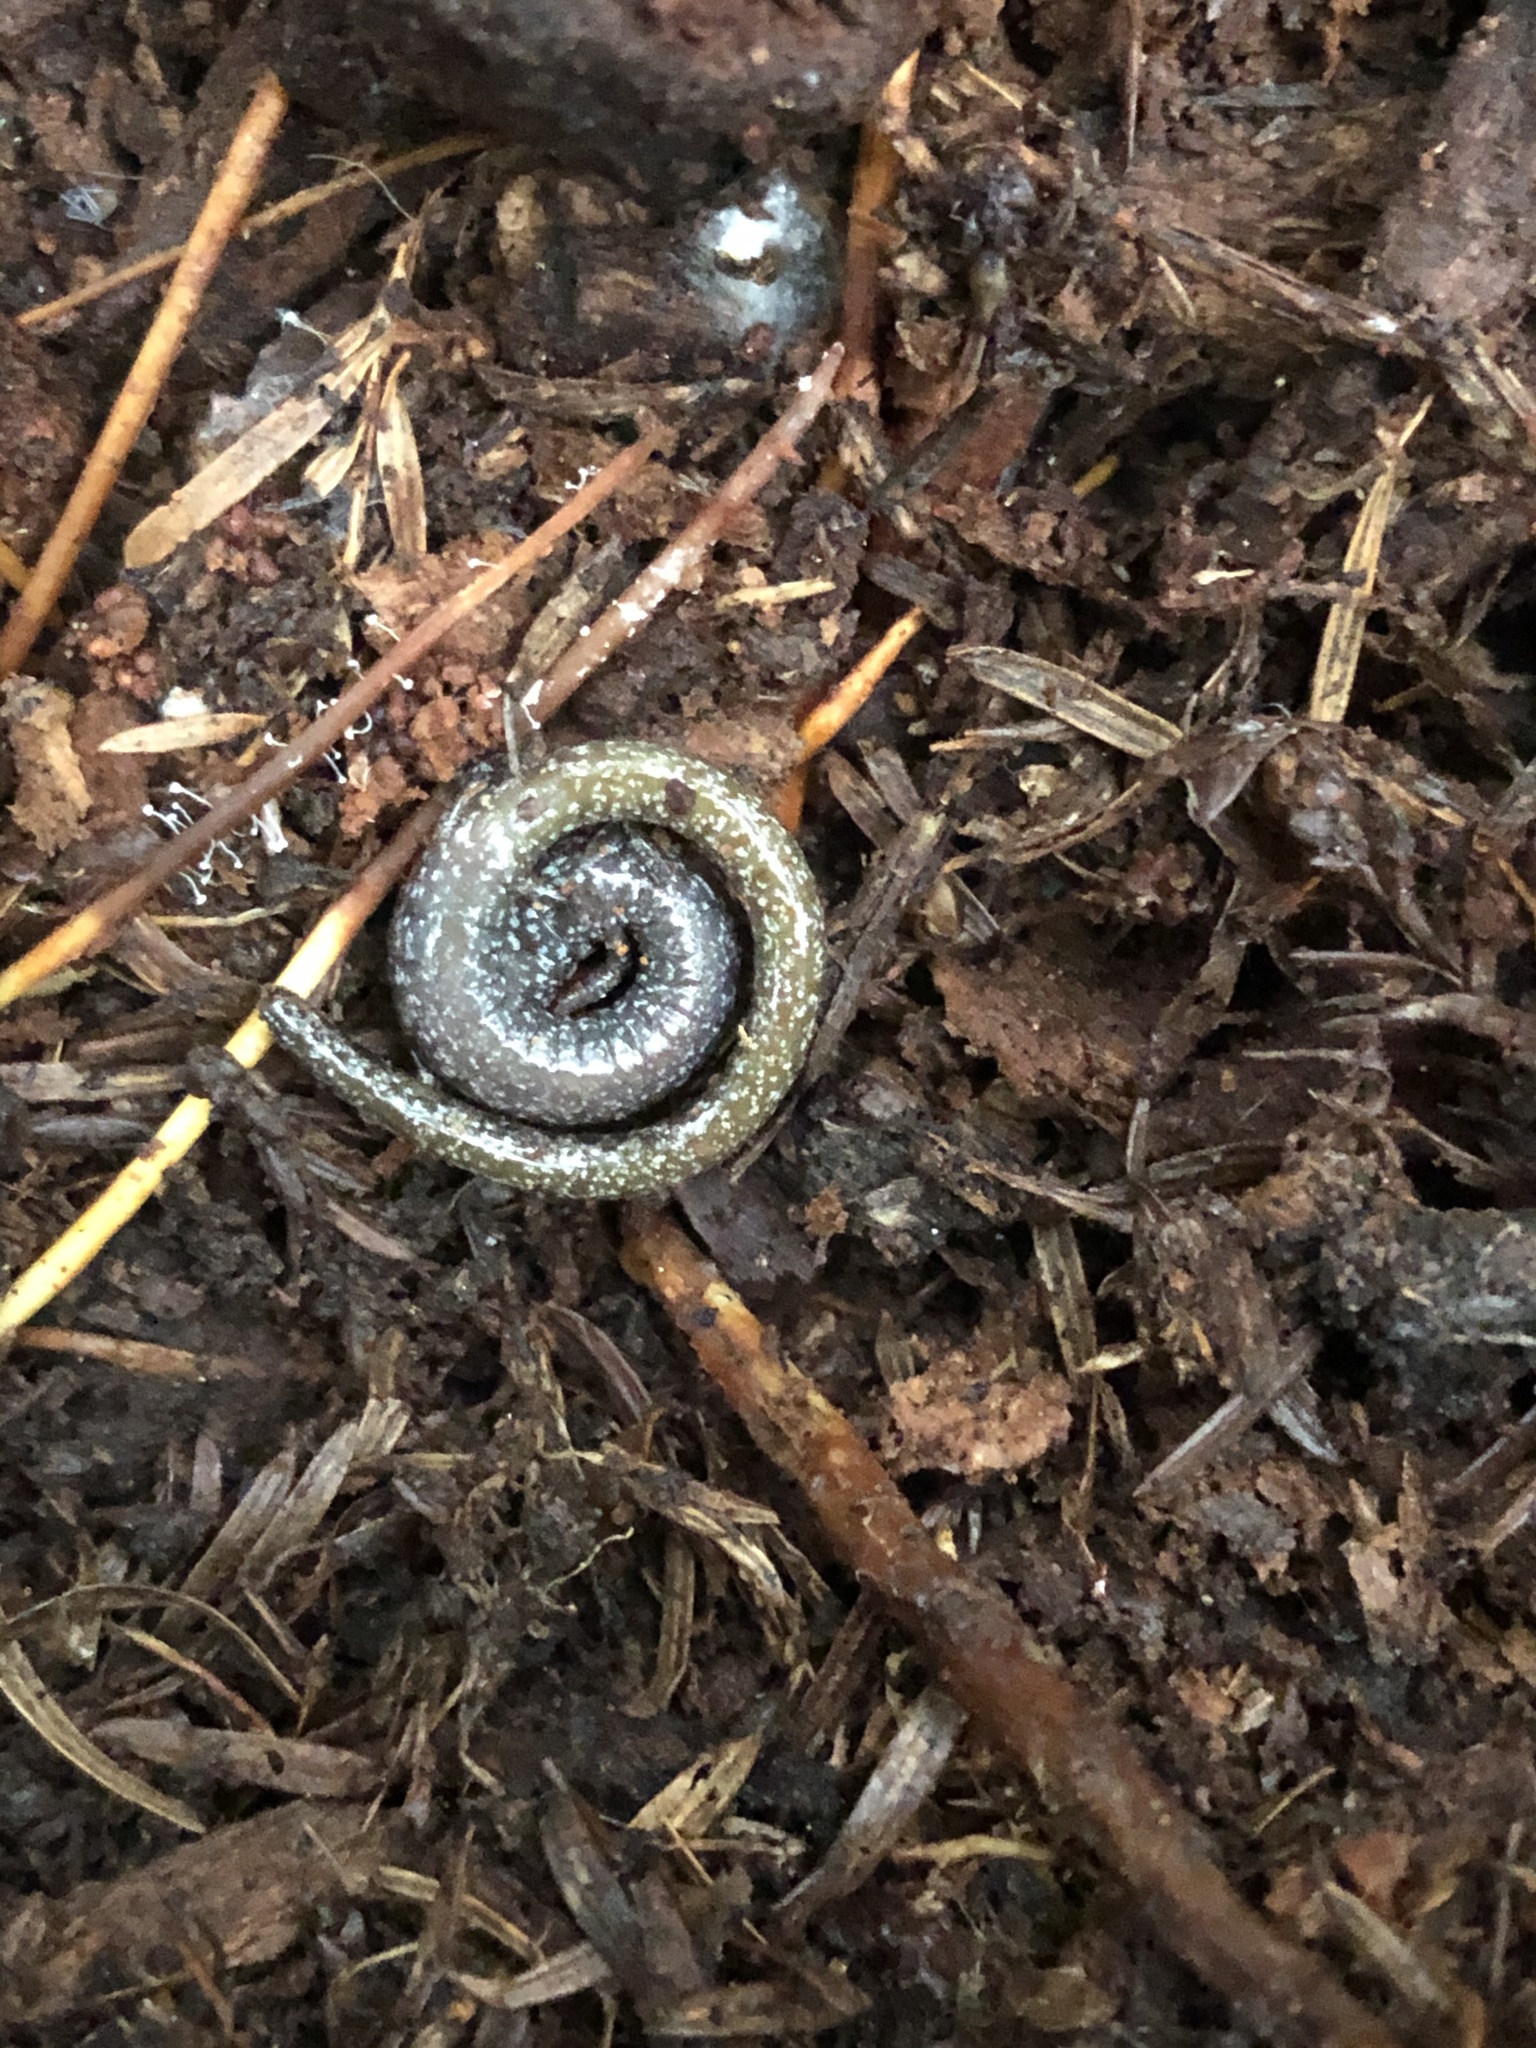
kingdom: Animalia
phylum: Chordata
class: Amphibia
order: Caudata
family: Plethodontidae
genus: Batrachoseps
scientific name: Batrachoseps attenuatus
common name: California slender salamander
